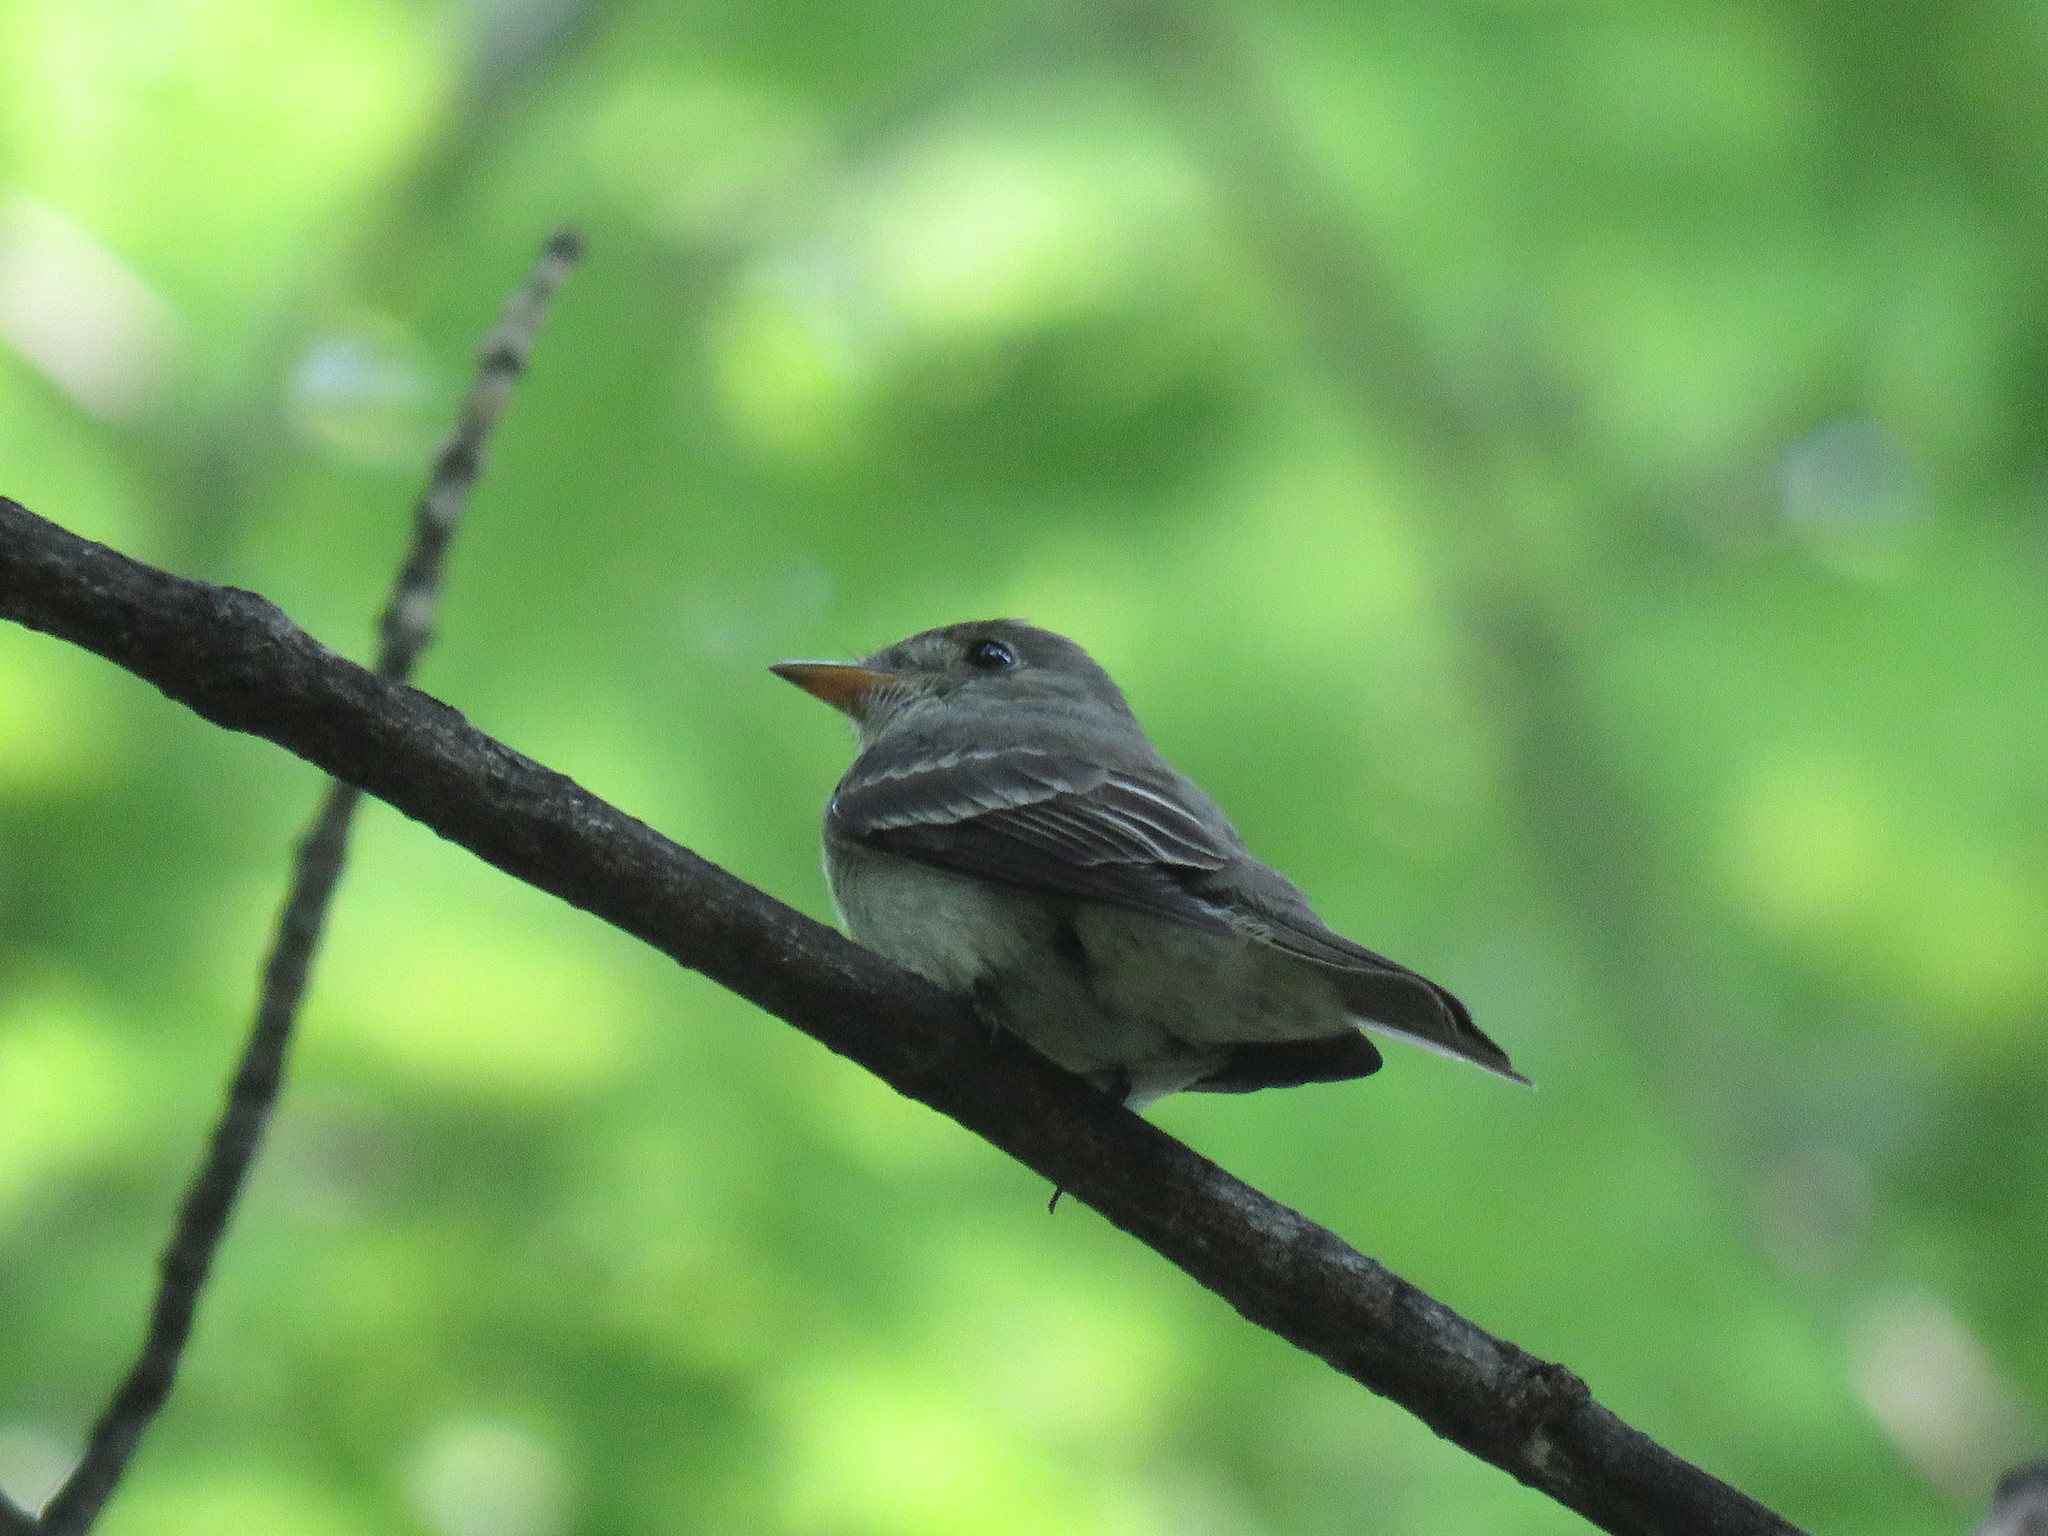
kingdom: Animalia
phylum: Chordata
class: Aves
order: Passeriformes
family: Tyrannidae
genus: Contopus
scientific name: Contopus virens
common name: Eastern wood-pewee
